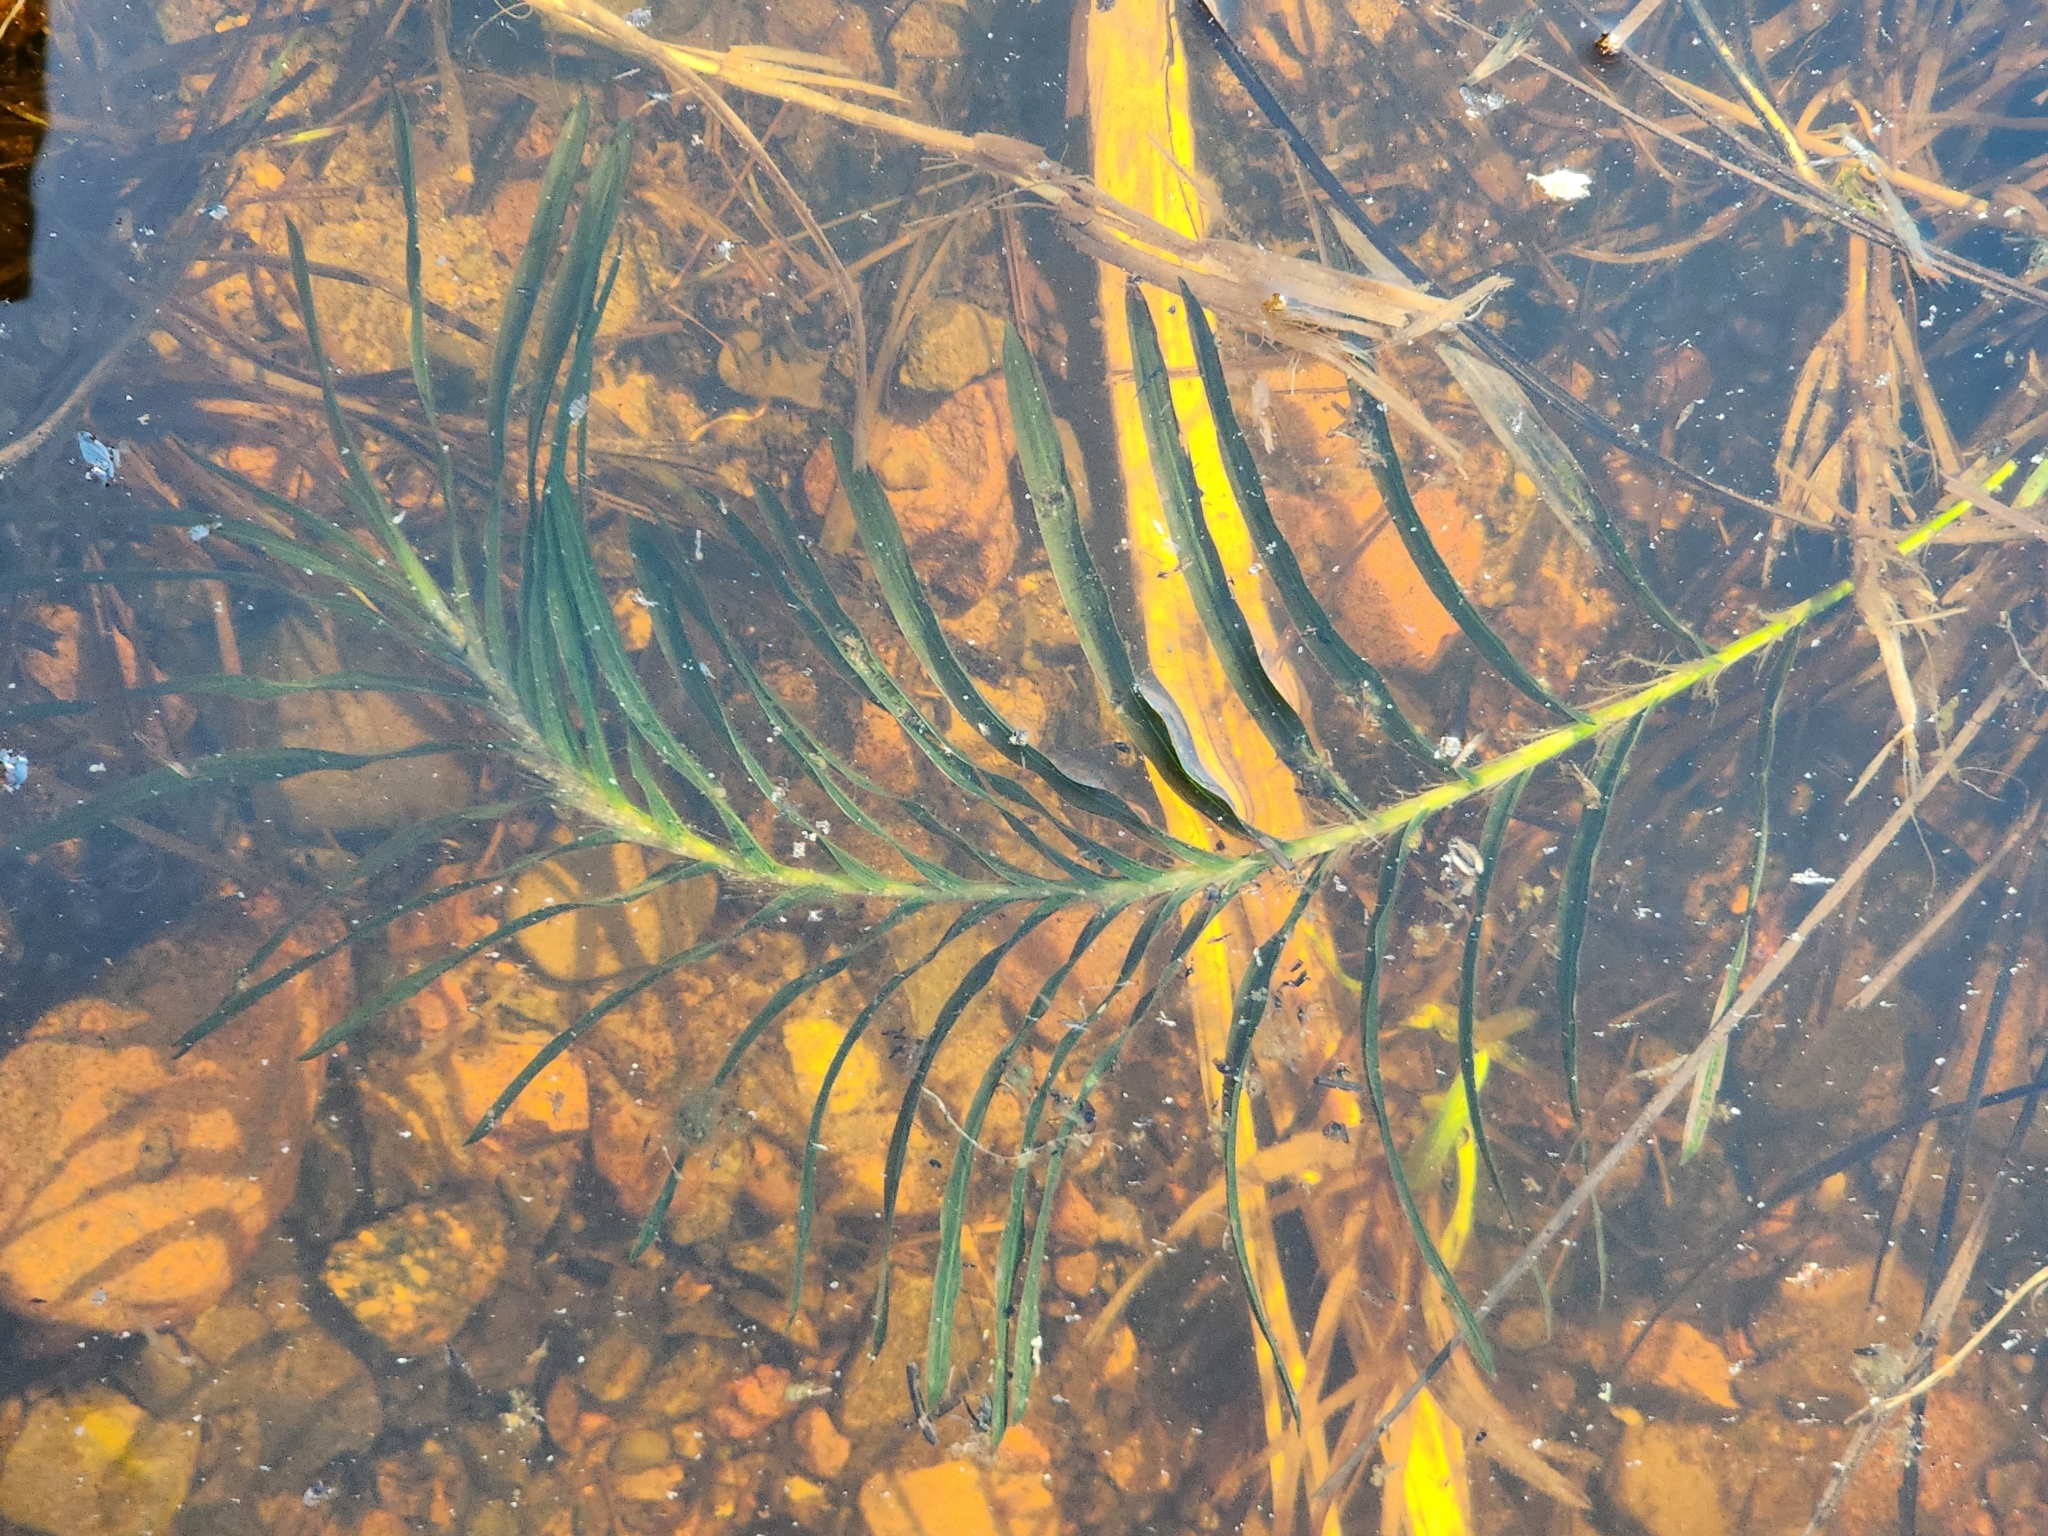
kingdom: Plantae
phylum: Tracheophyta
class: Liliopsida
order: Alismatales
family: Potamogetonaceae
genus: Potamogeton
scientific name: Potamogeton robbinsii
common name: Fern pondweed
